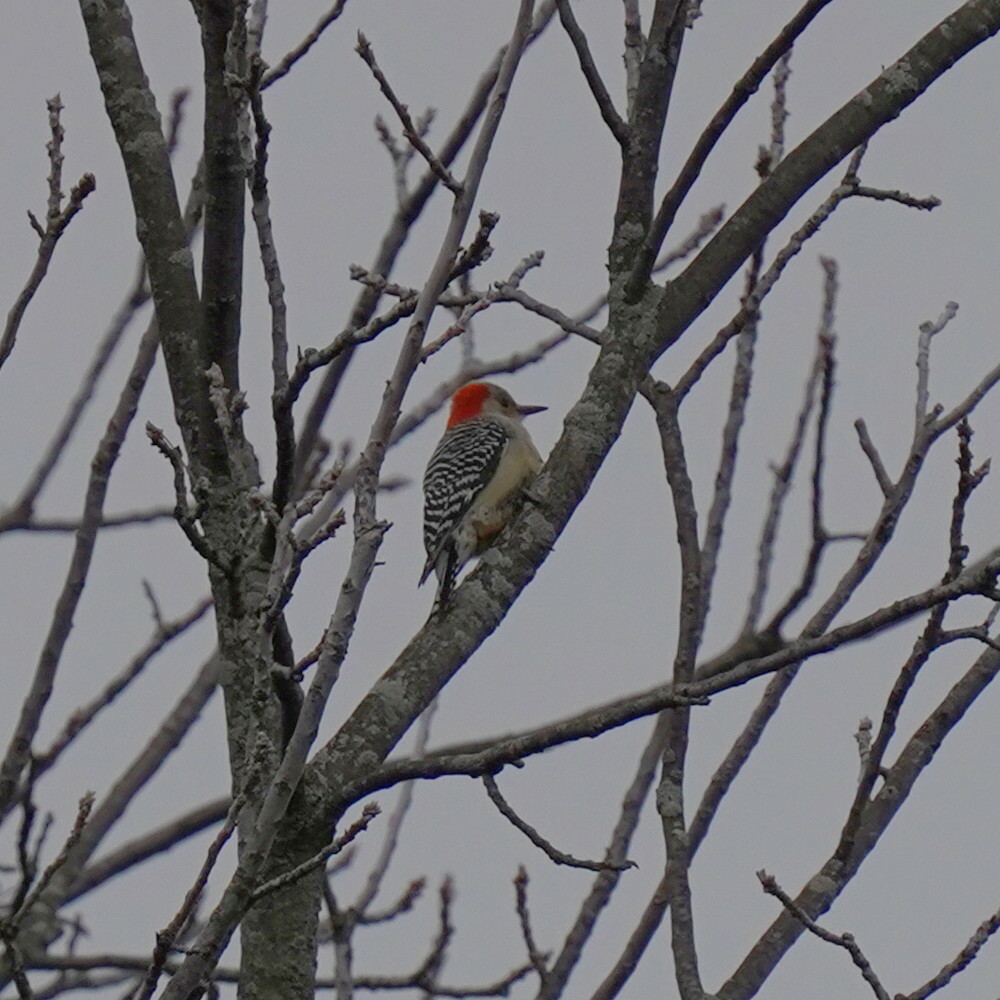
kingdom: Animalia
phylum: Chordata
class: Aves
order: Piciformes
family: Picidae
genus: Melanerpes
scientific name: Melanerpes carolinus
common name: Red-bellied woodpecker
